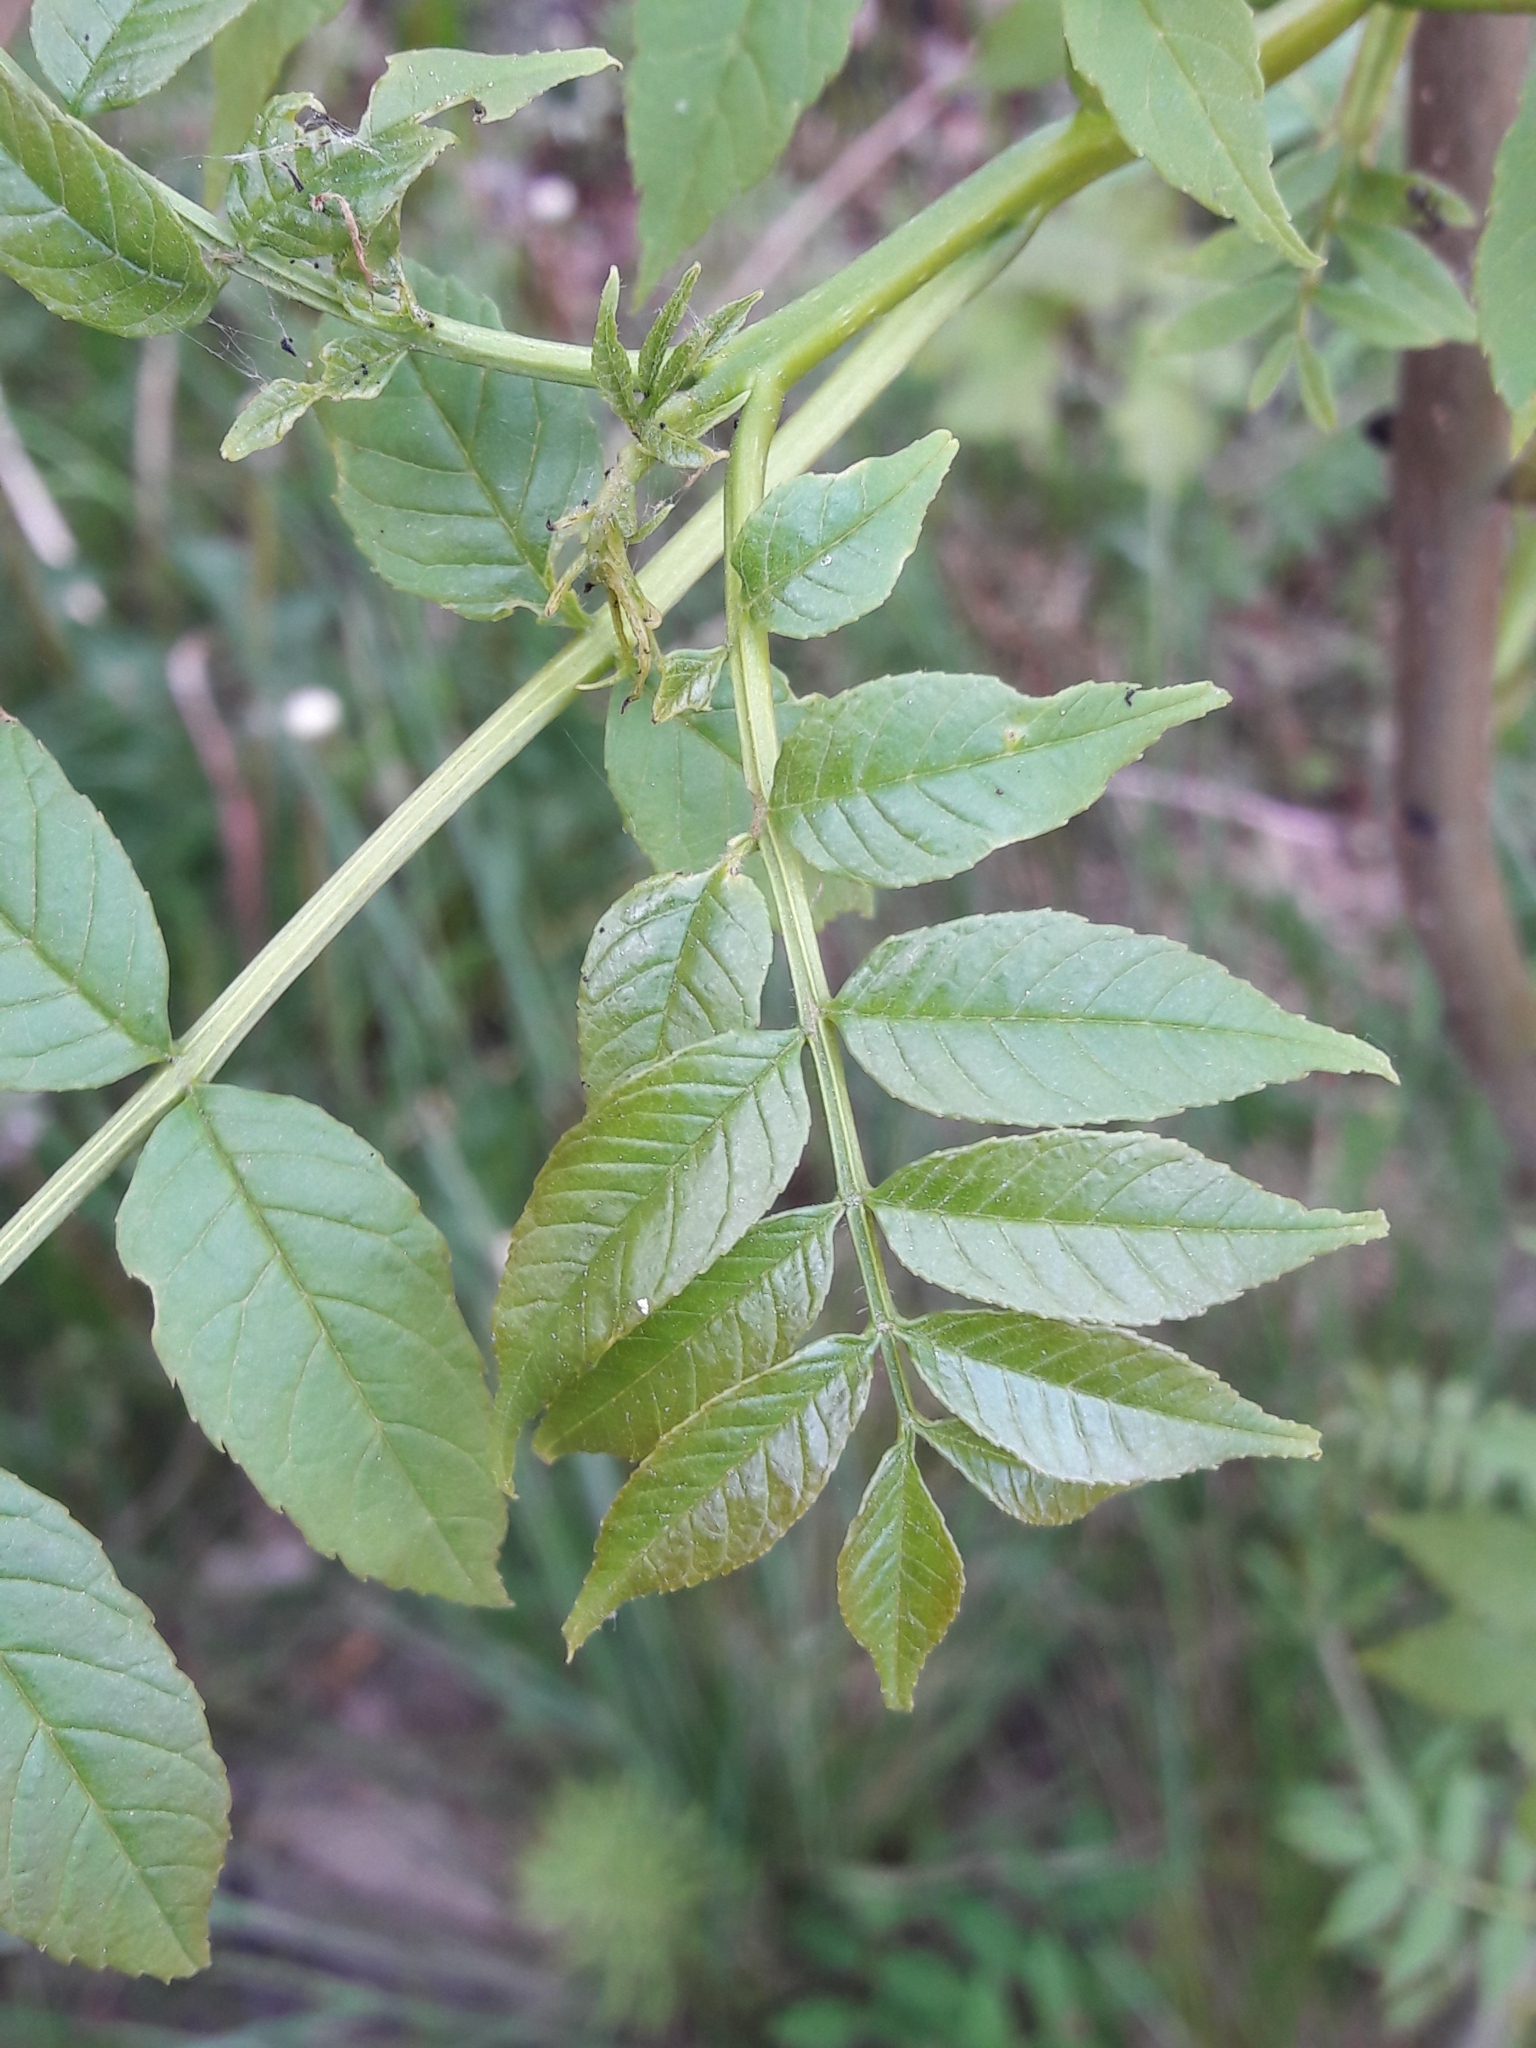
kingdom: Plantae
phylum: Tracheophyta
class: Magnoliopsida
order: Lamiales
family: Oleaceae
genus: Fraxinus
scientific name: Fraxinus excelsior
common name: European ash
